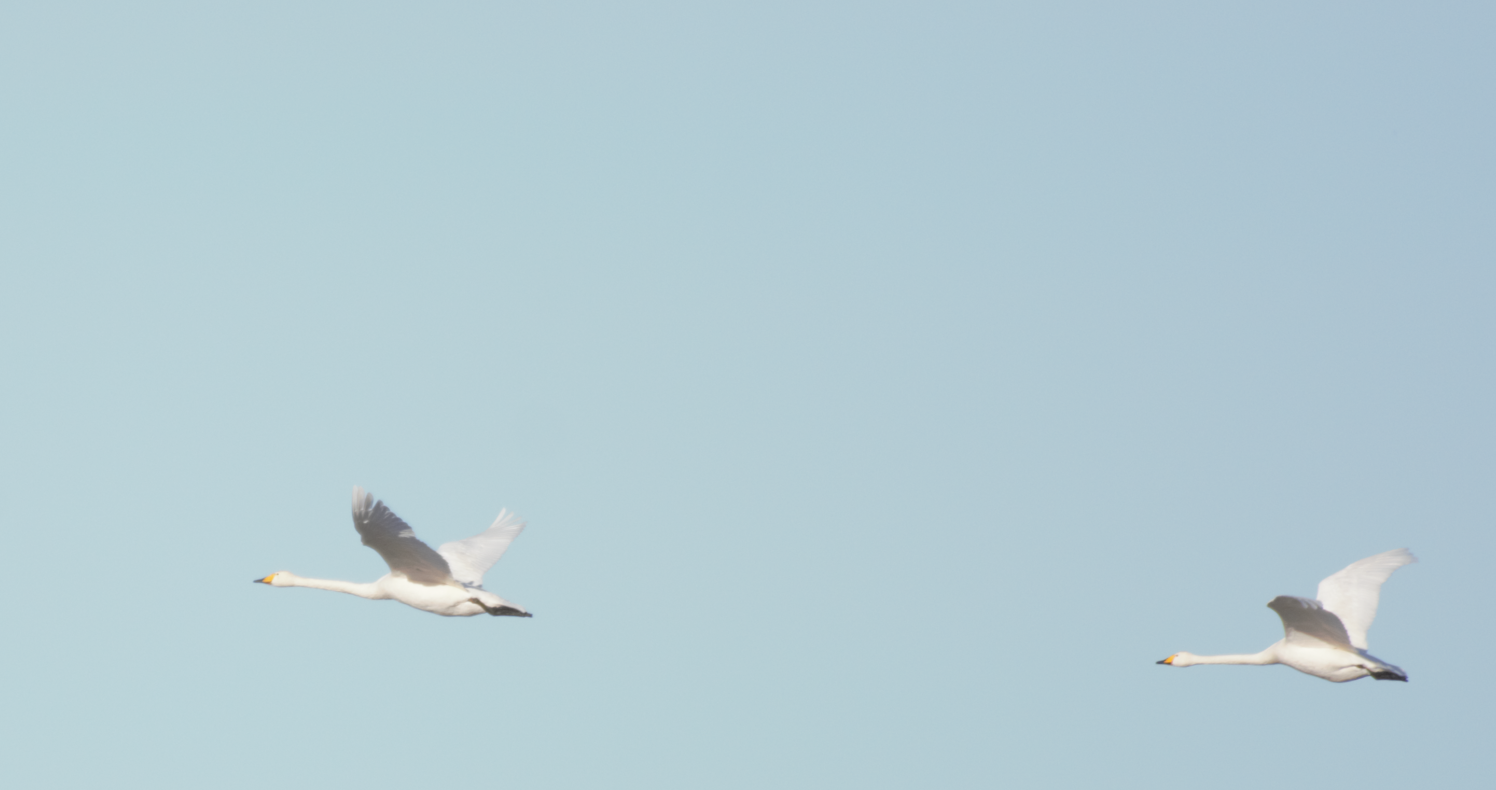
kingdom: Animalia
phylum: Chordata
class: Aves
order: Anseriformes
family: Anatidae
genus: Cygnus
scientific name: Cygnus cygnus
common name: Whooper swan
